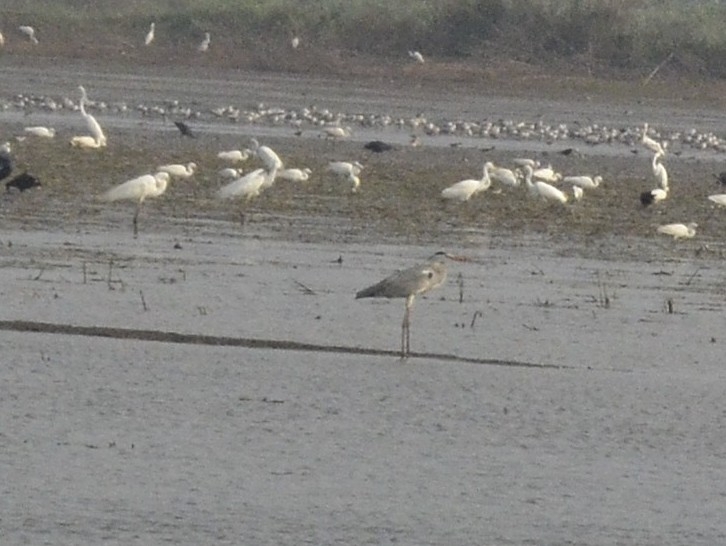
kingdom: Animalia
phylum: Chordata
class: Aves
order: Pelecaniformes
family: Ardeidae
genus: Ardea
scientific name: Ardea cinerea
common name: Grey heron
